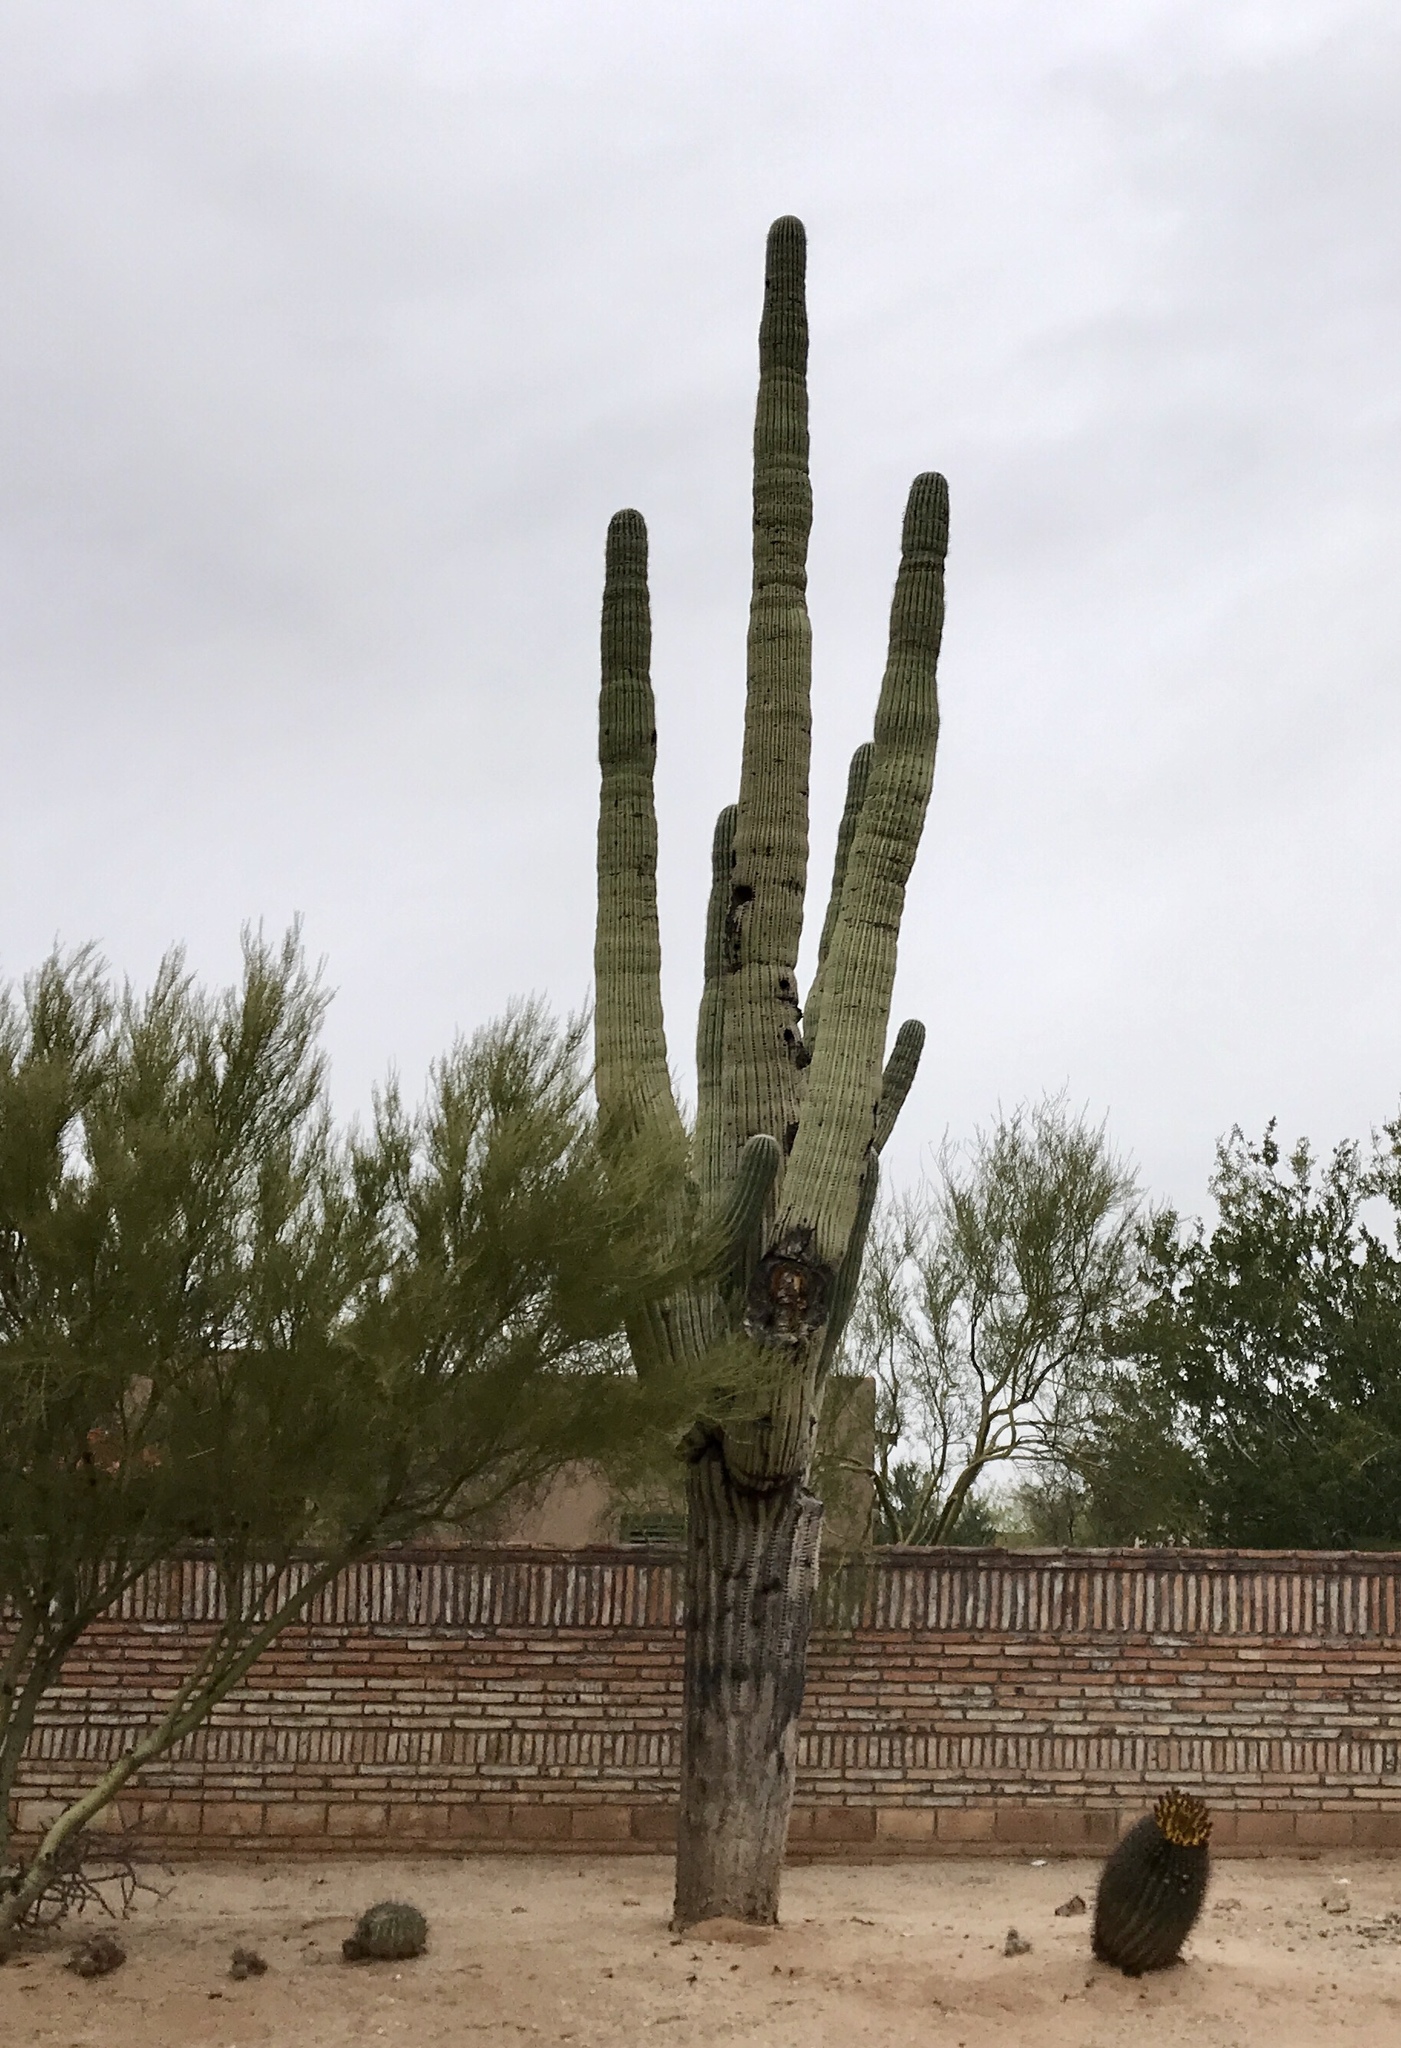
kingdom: Plantae
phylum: Tracheophyta
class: Magnoliopsida
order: Caryophyllales
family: Cactaceae
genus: Carnegiea
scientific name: Carnegiea gigantea
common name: Saguaro
